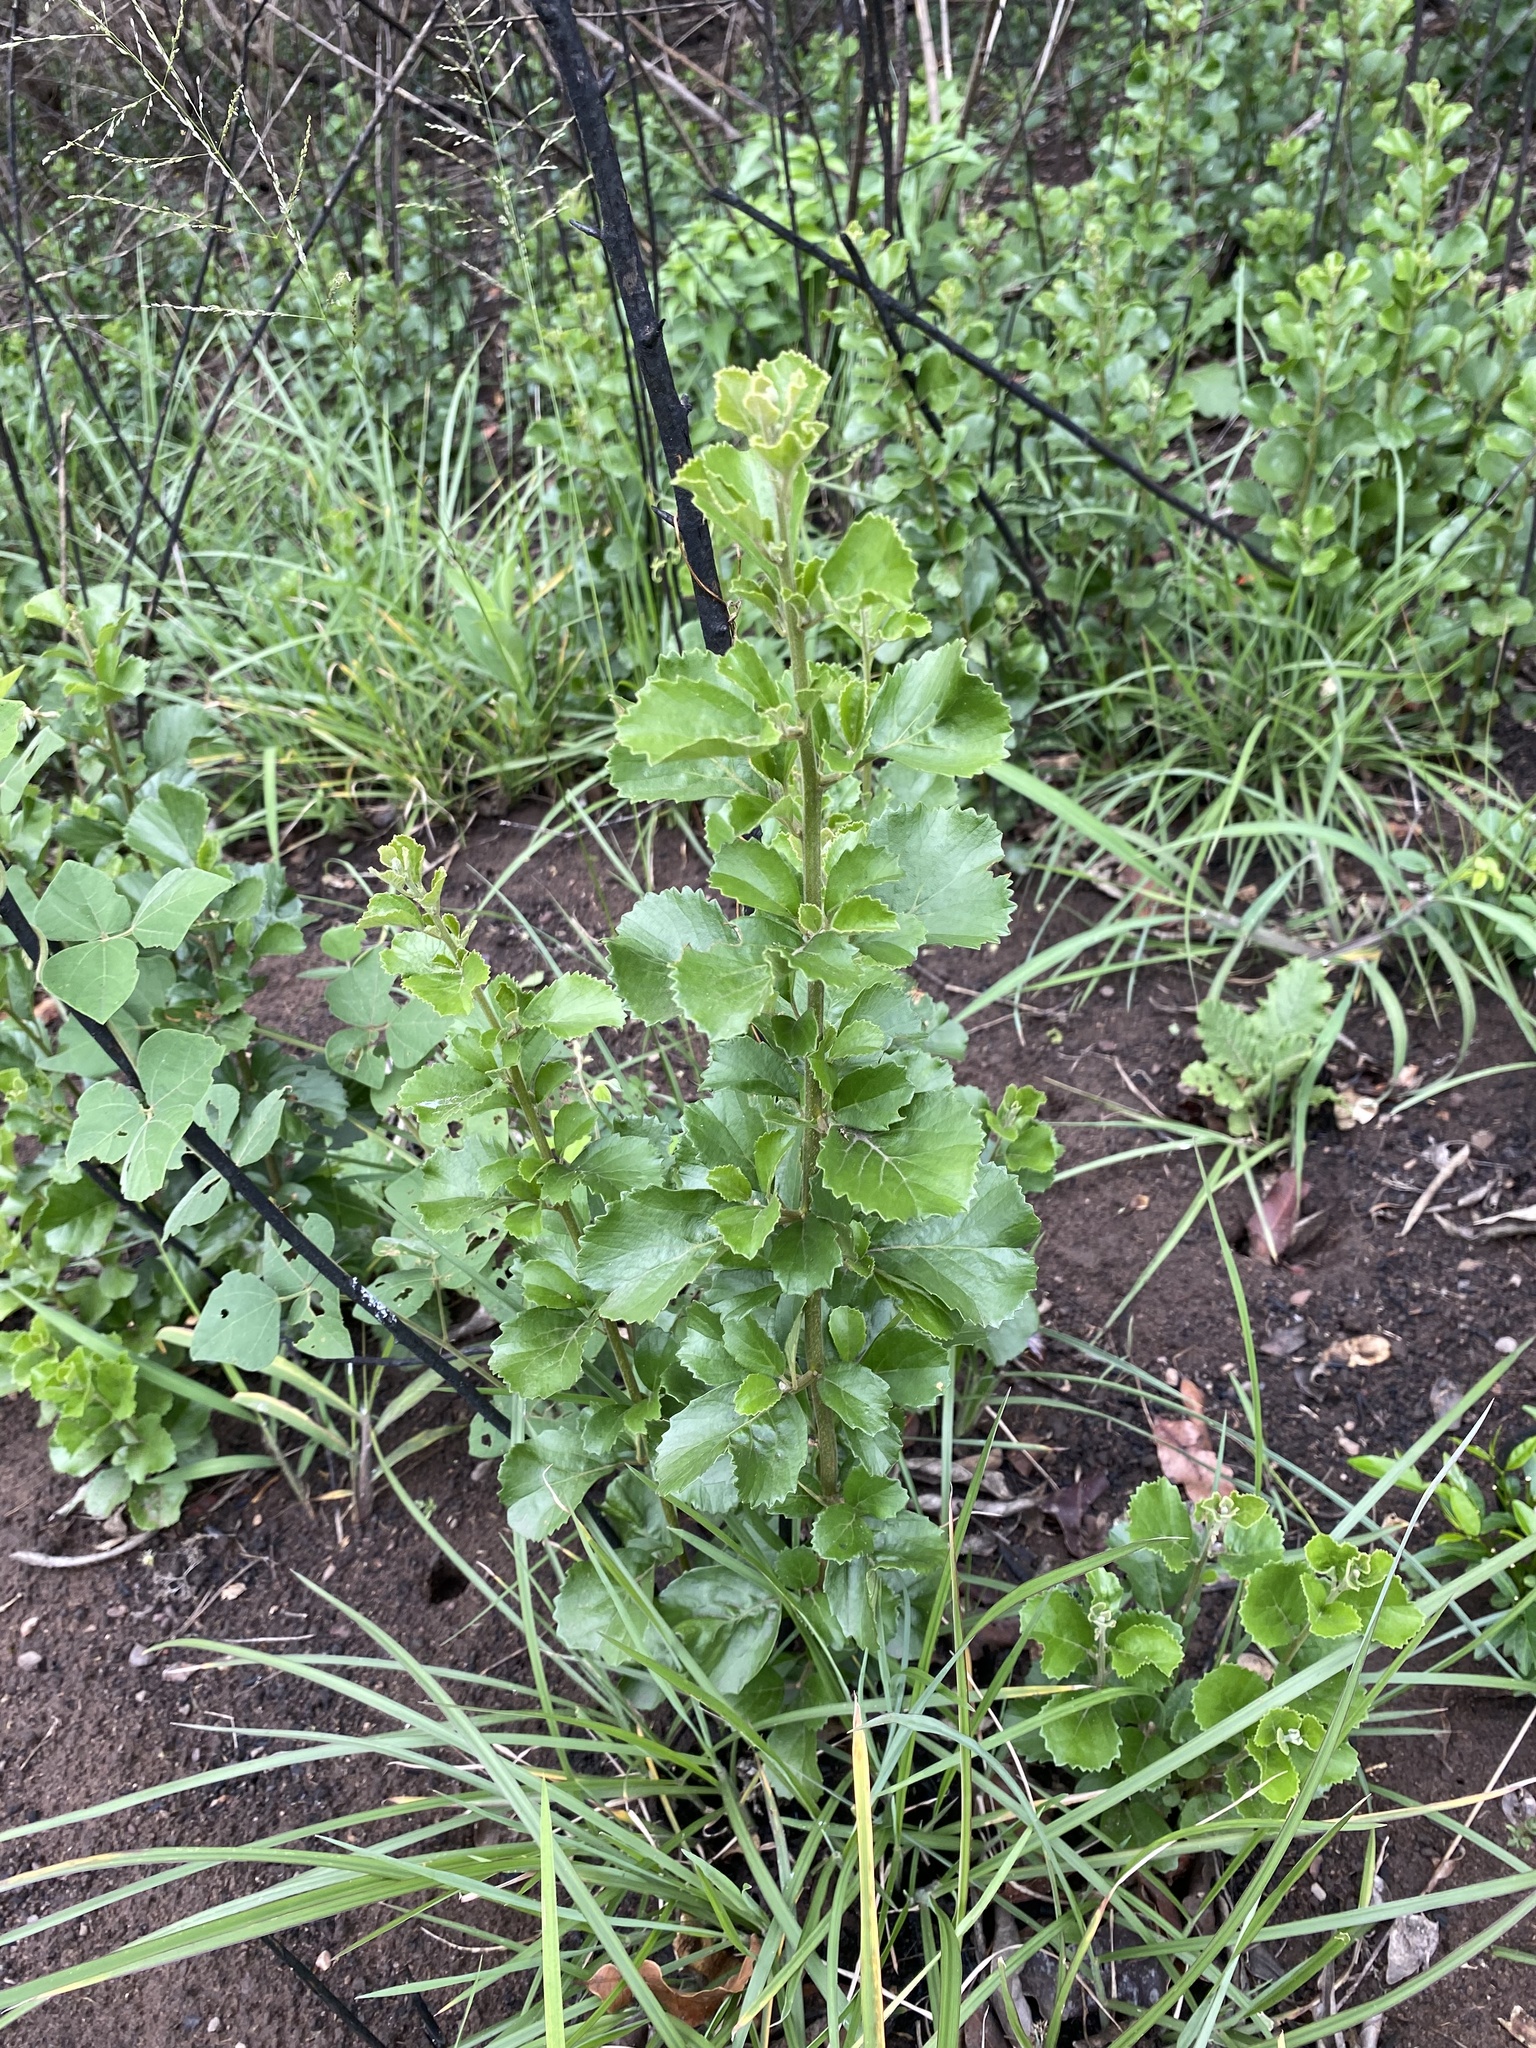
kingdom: Plantae
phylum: Tracheophyta
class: Magnoliopsida
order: Ericales
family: Primulaceae
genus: Maesa
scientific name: Maesa alnifolia
